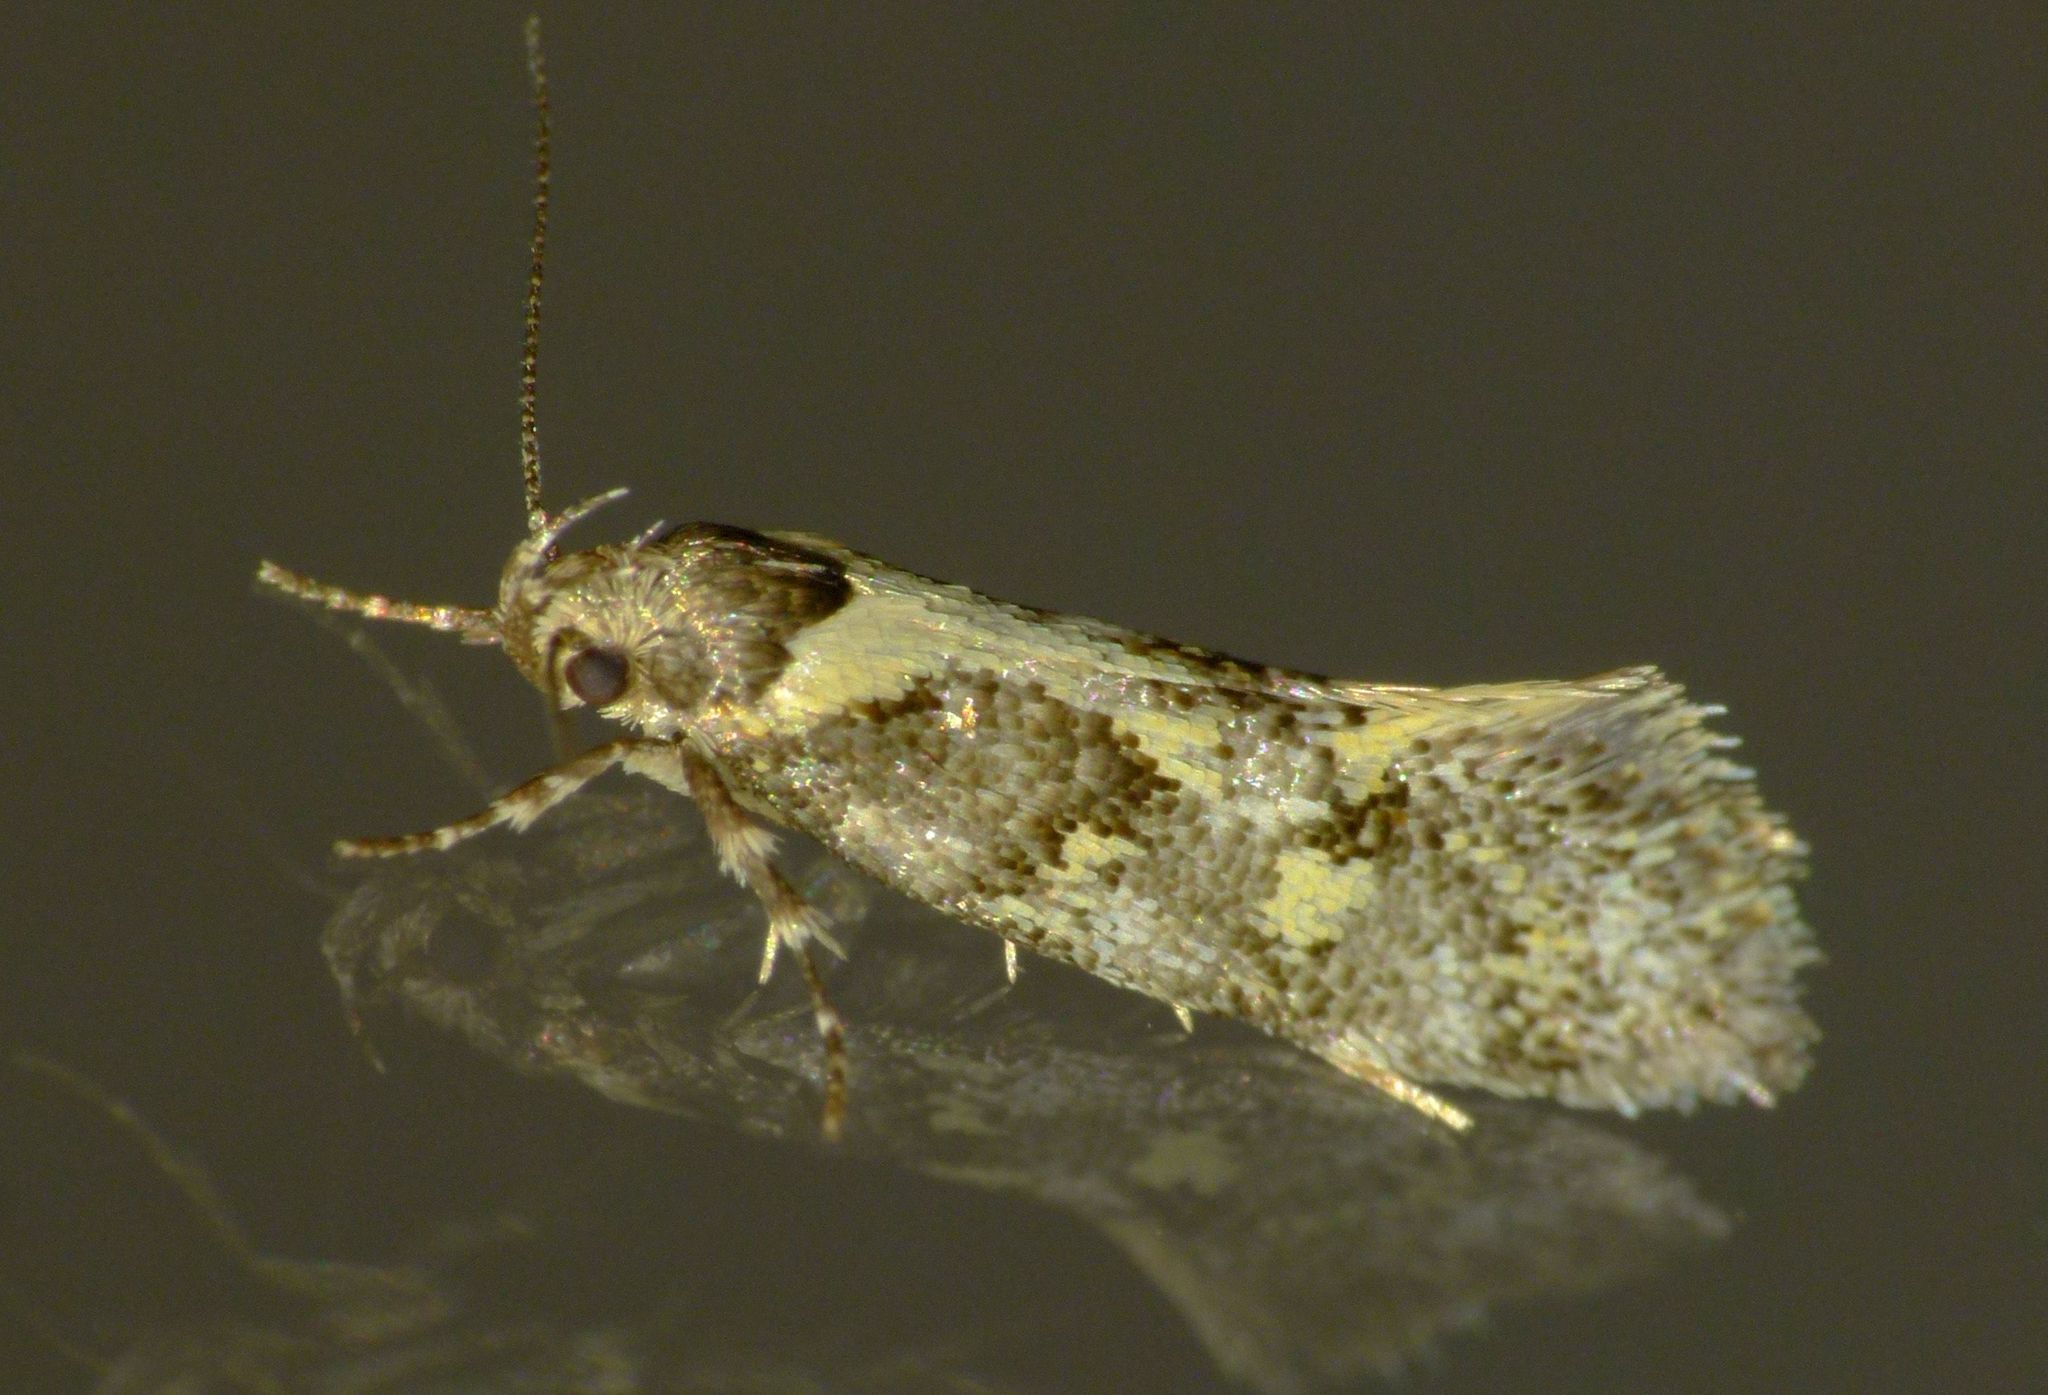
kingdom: Animalia
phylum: Arthropoda
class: Insecta
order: Lepidoptera
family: Oecophoridae
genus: Tingena
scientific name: Tingena lassa
